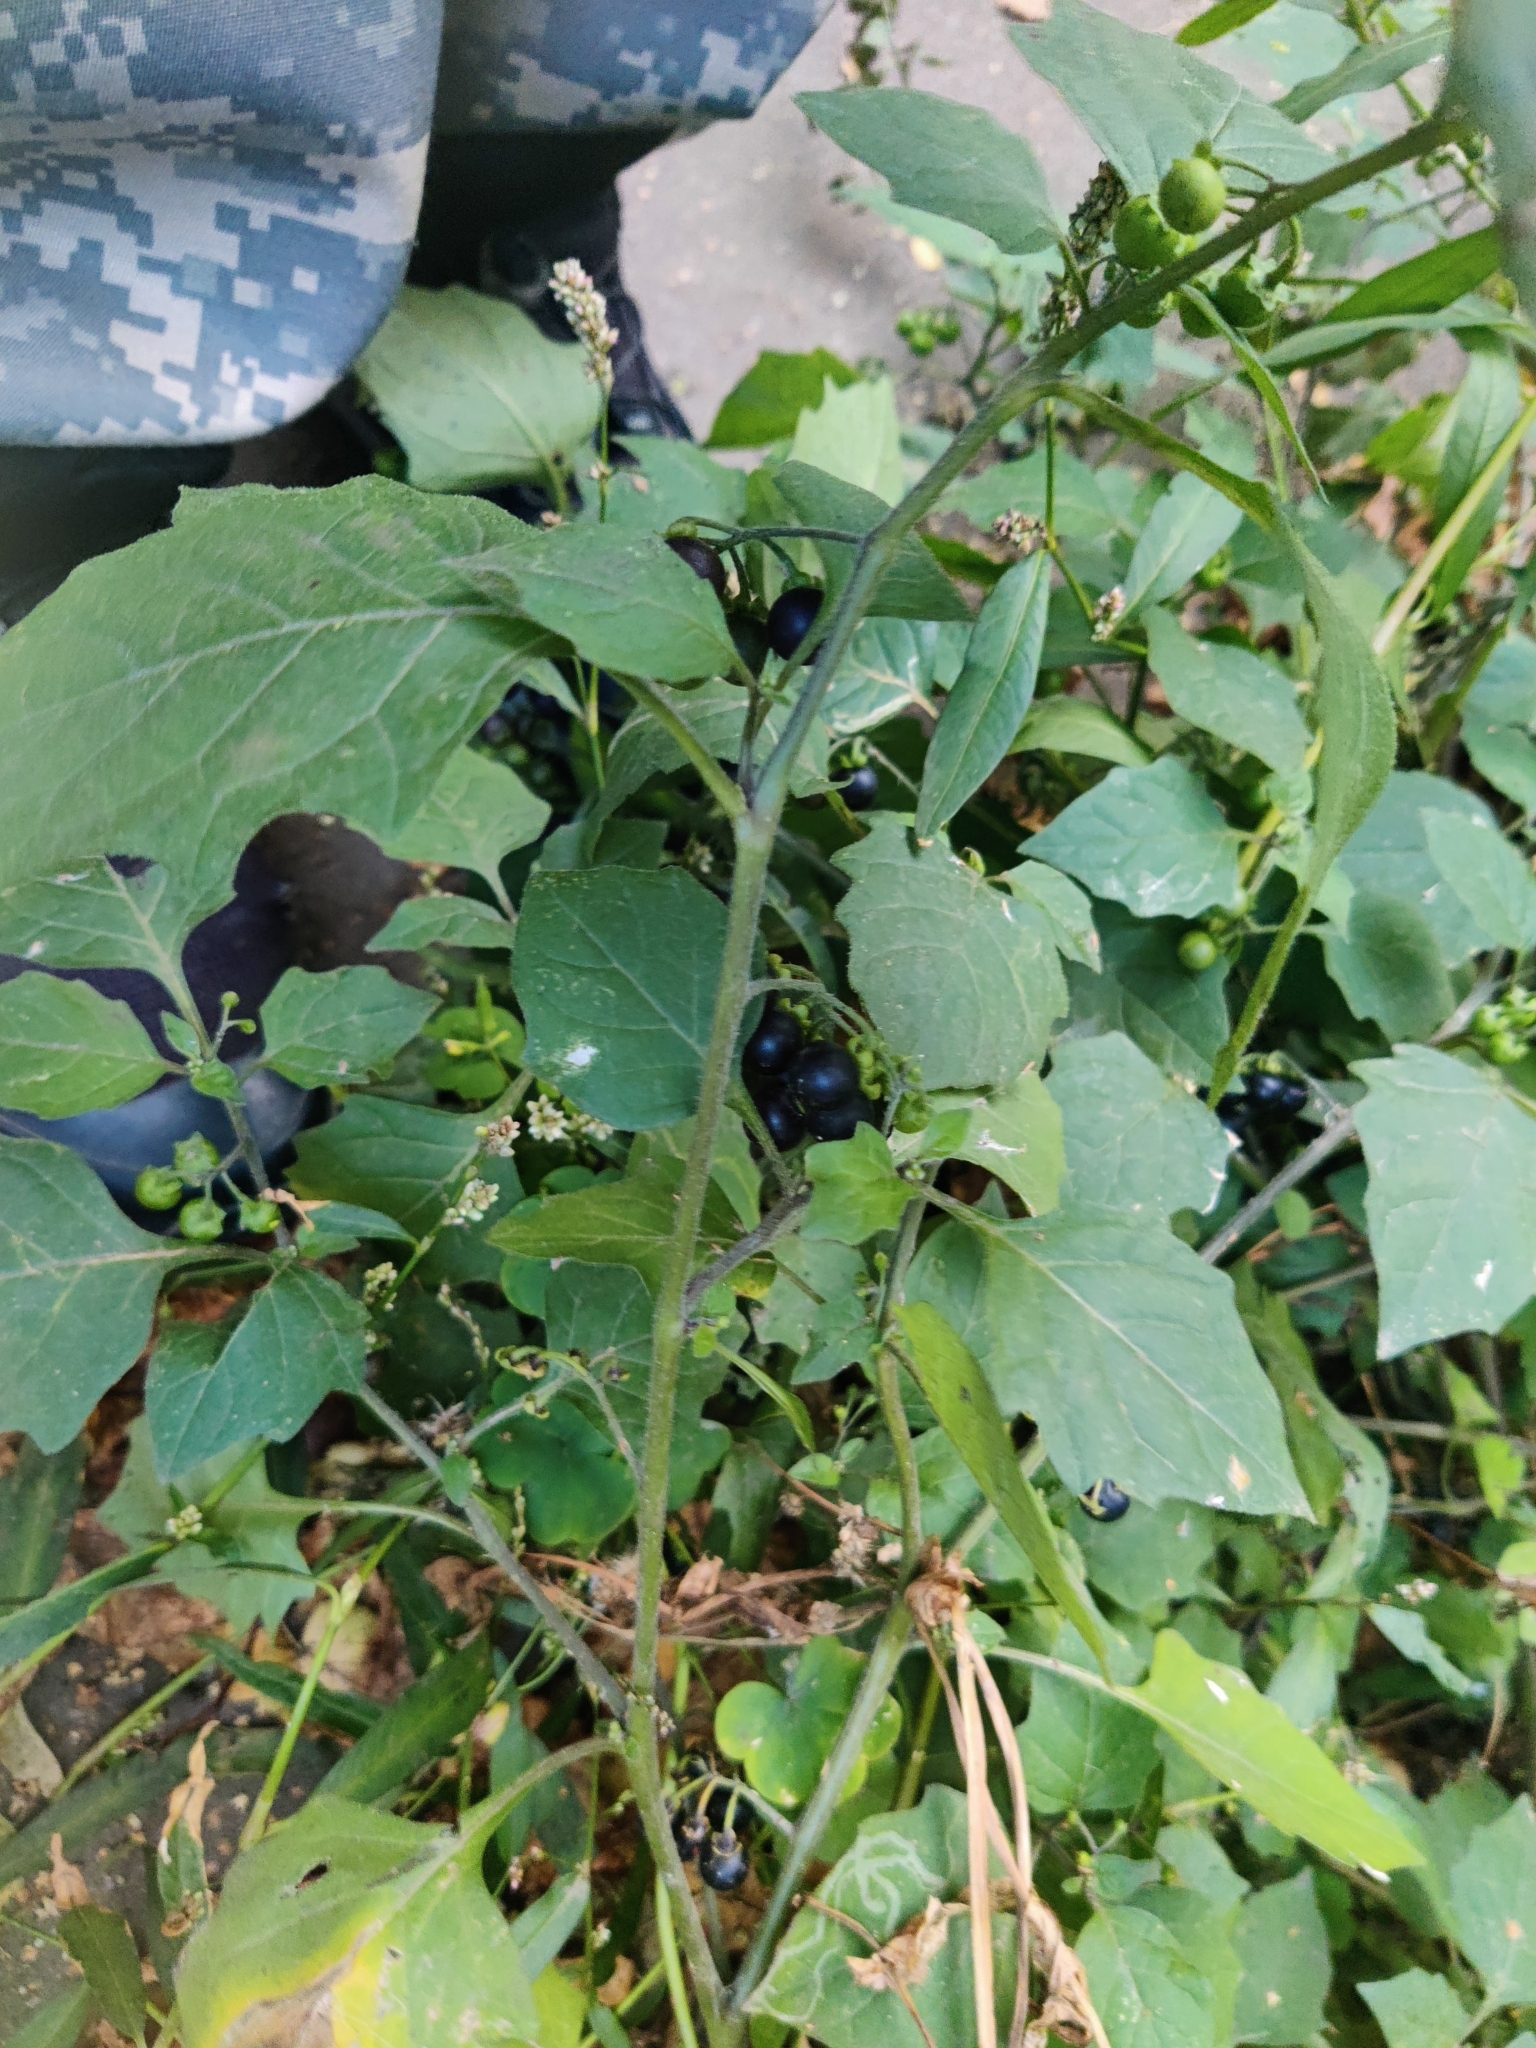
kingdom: Plantae
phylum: Tracheophyta
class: Magnoliopsida
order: Solanales
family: Solanaceae
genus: Solanum
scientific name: Solanum nigrum
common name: Black nightshade
